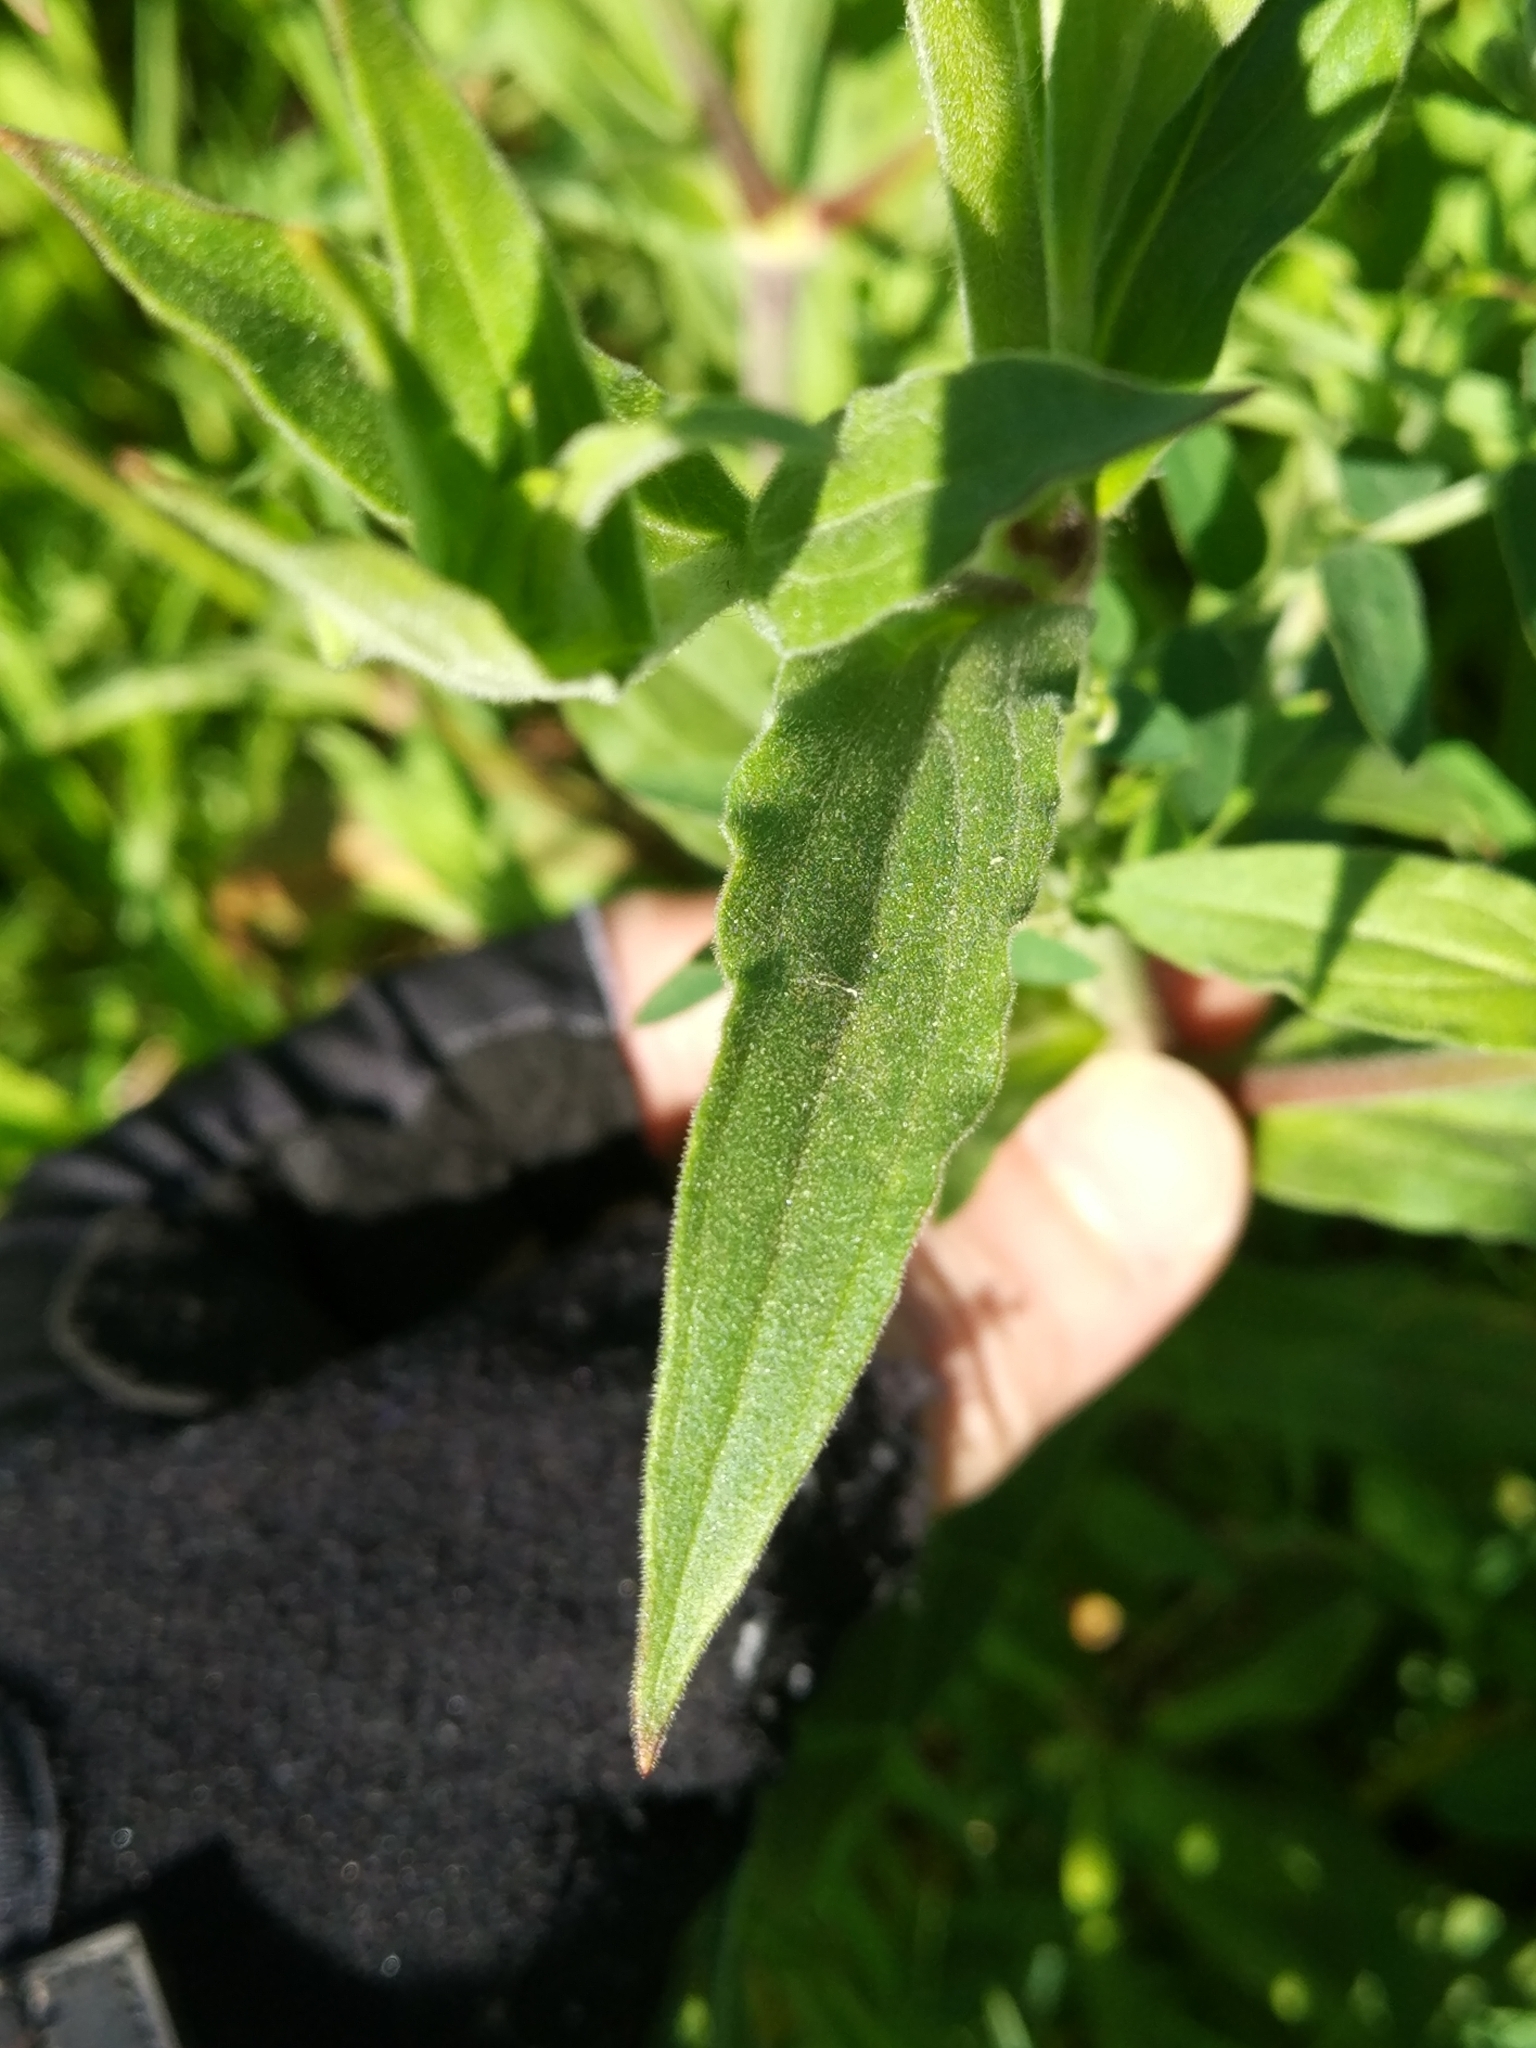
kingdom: Plantae
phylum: Tracheophyta
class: Magnoliopsida
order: Caryophyllales
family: Caryophyllaceae
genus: Silene
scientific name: Silene latifolia
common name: White campion
